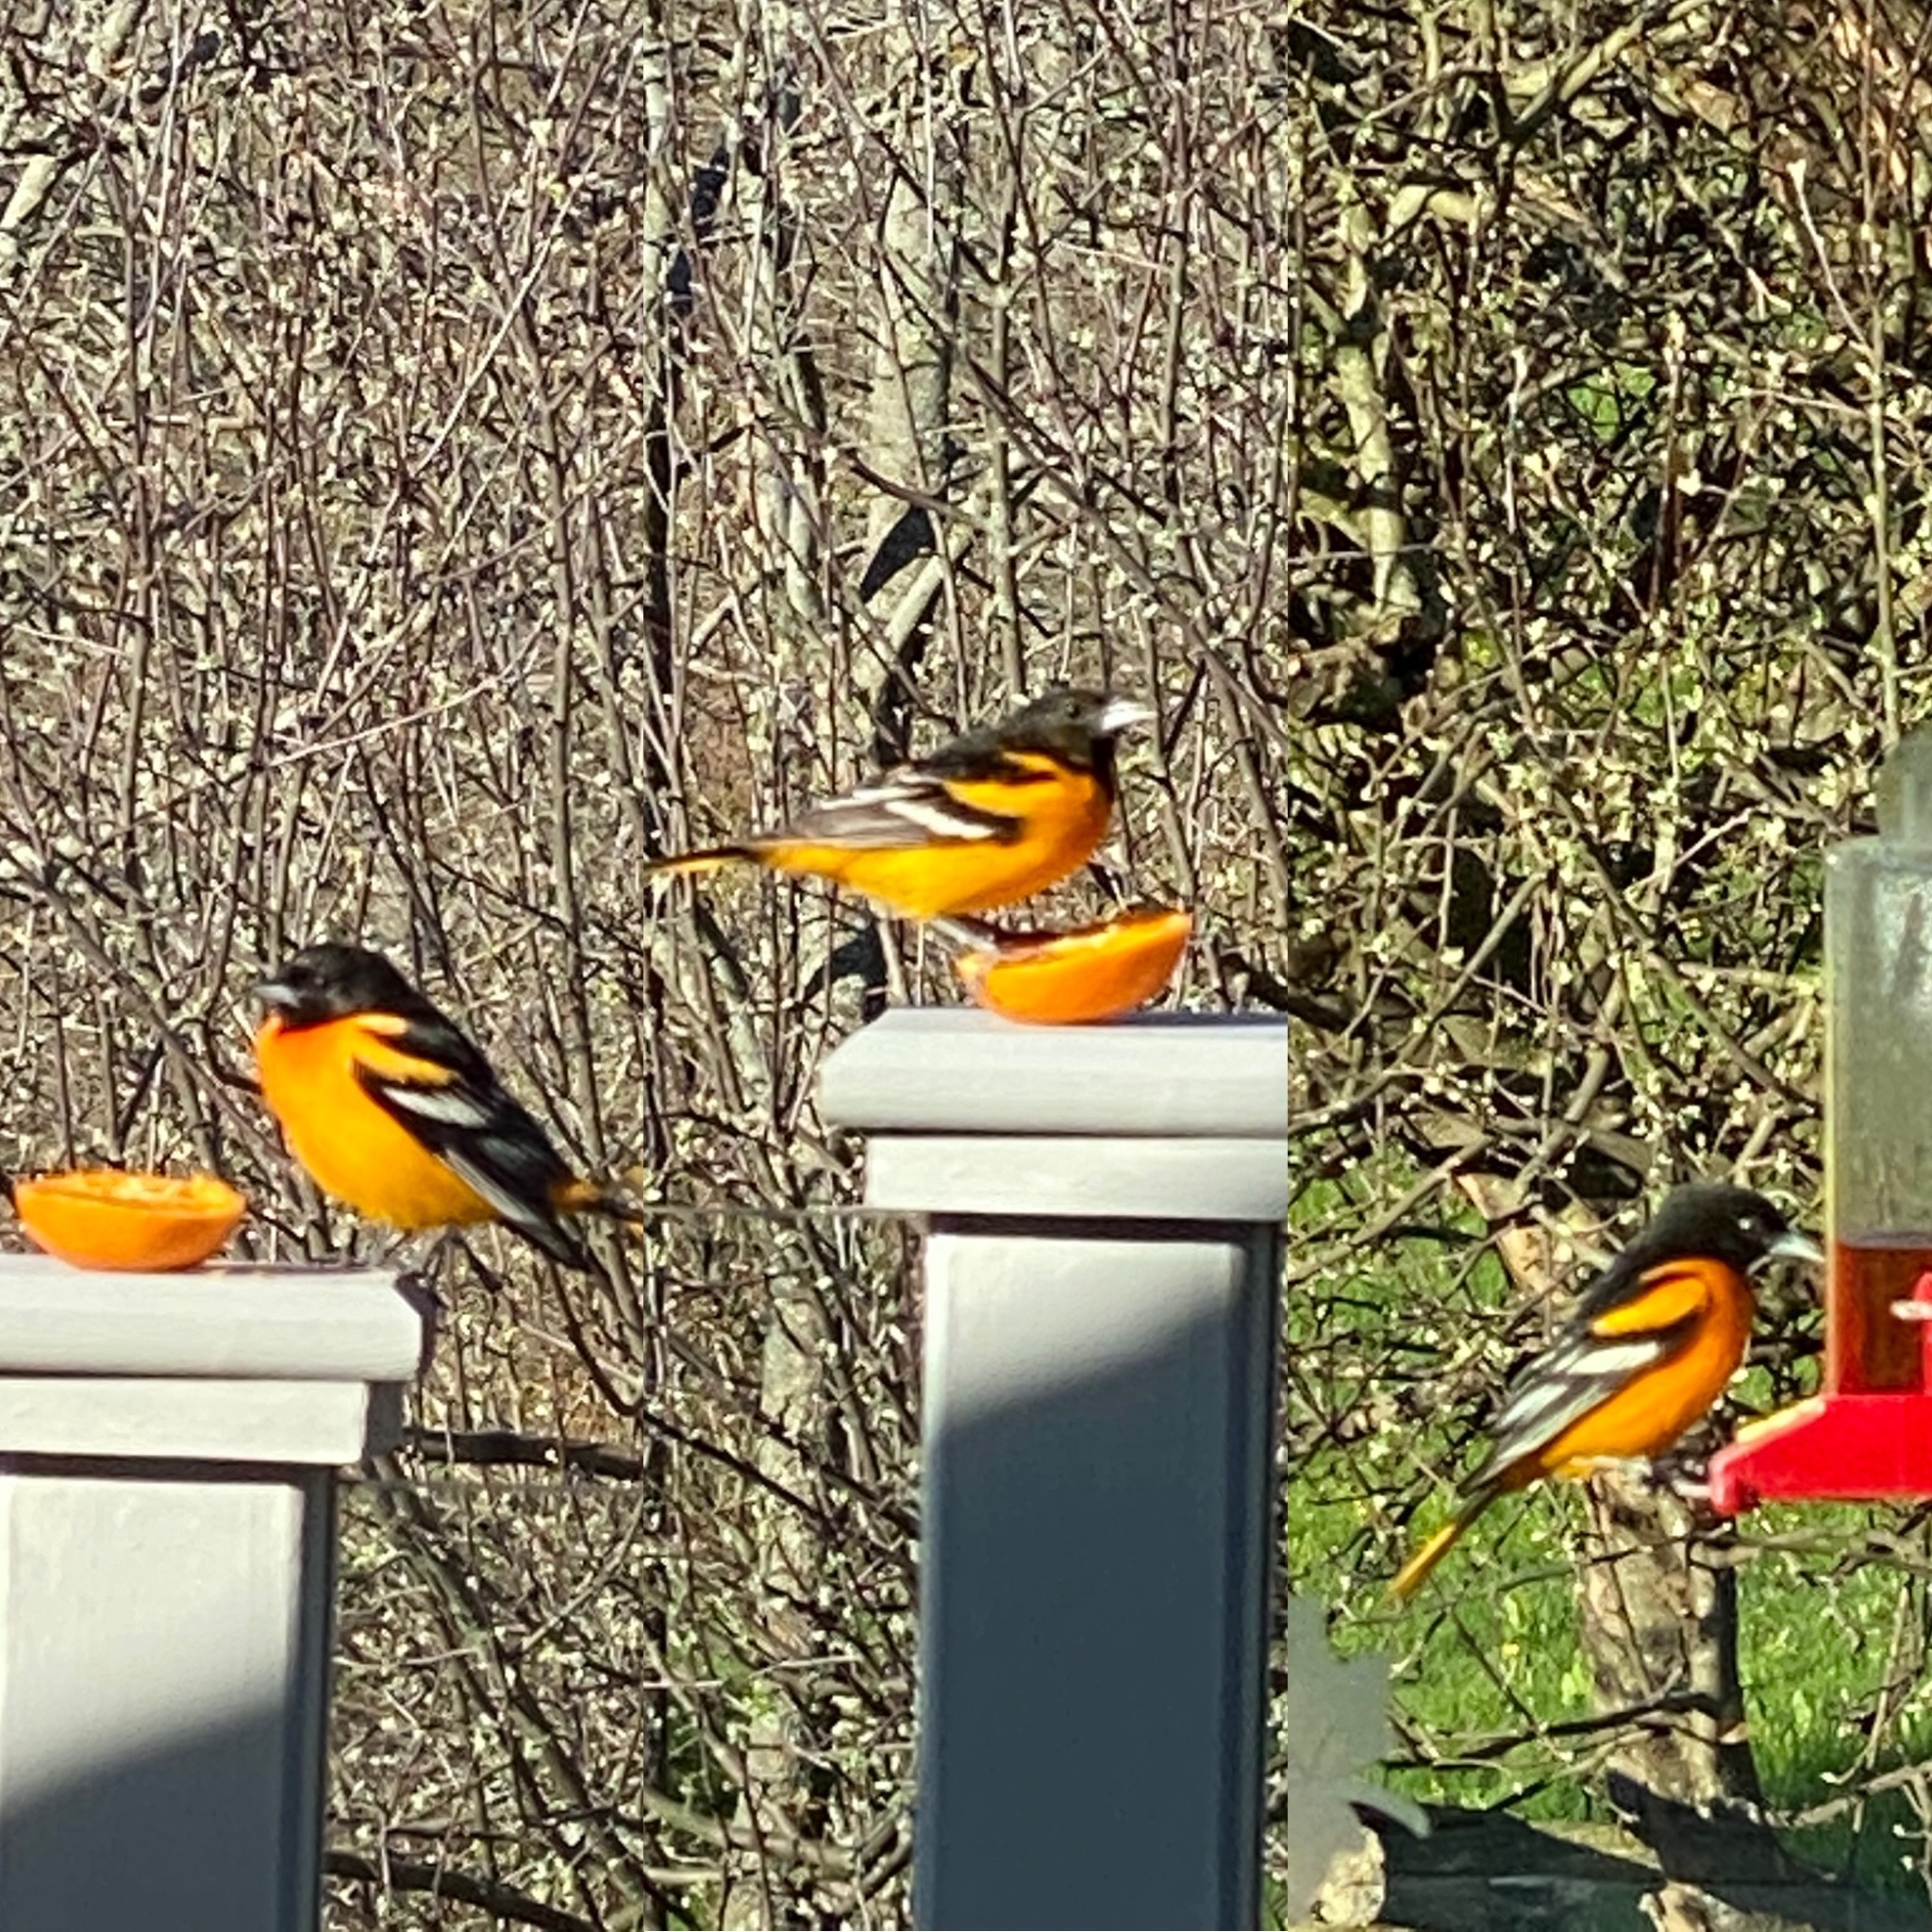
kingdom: Animalia
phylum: Chordata
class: Aves
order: Passeriformes
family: Icteridae
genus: Icterus
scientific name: Icterus galbula
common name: Baltimore oriole
